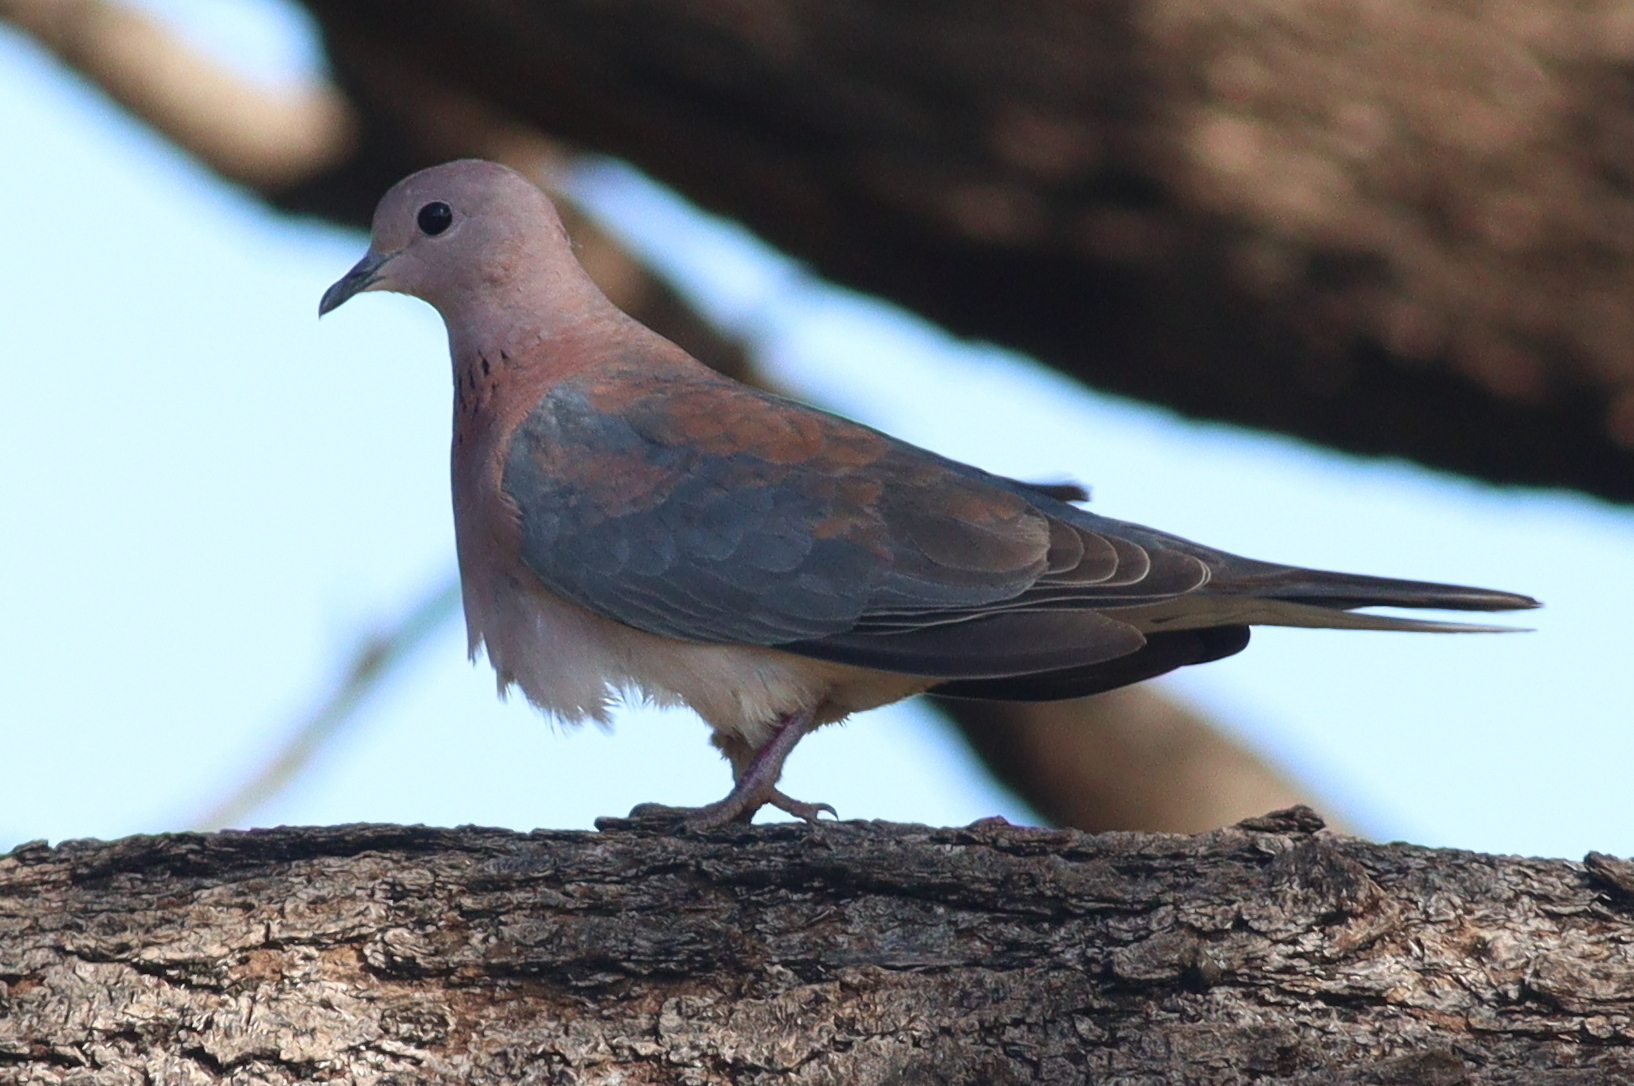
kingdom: Animalia
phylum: Chordata
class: Aves
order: Columbiformes
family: Columbidae
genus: Spilopelia
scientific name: Spilopelia senegalensis
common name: Laughing dove
